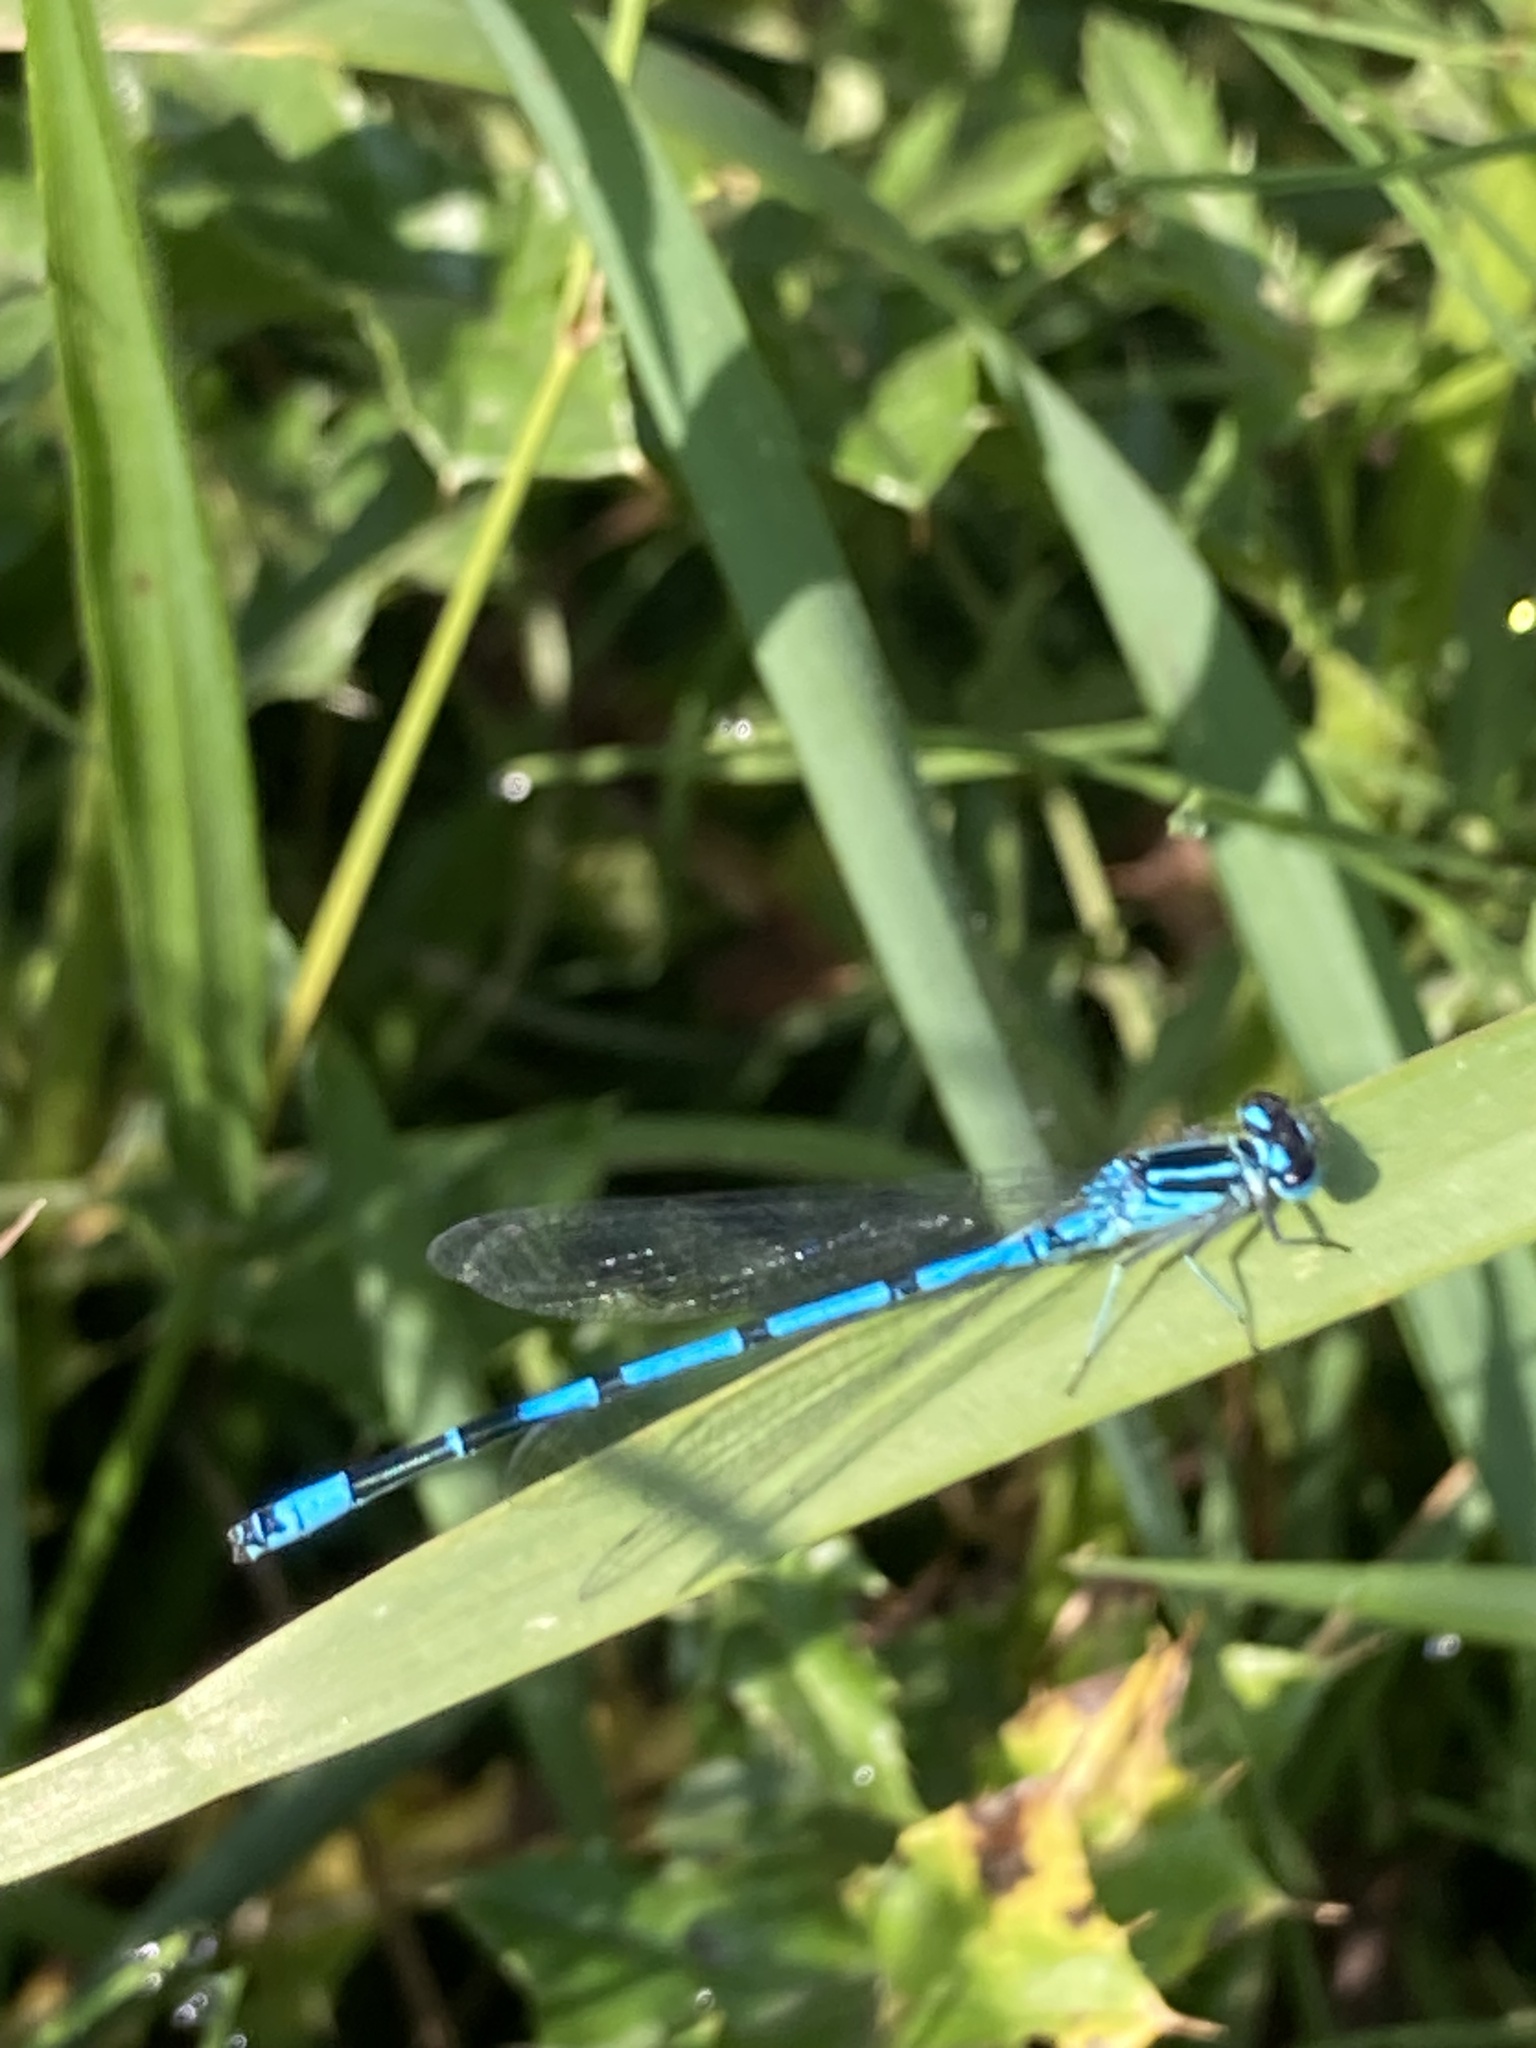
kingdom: Animalia
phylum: Arthropoda
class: Insecta
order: Odonata
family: Coenagrionidae
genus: Coenagrion
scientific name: Coenagrion puella
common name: Azure damselfly
